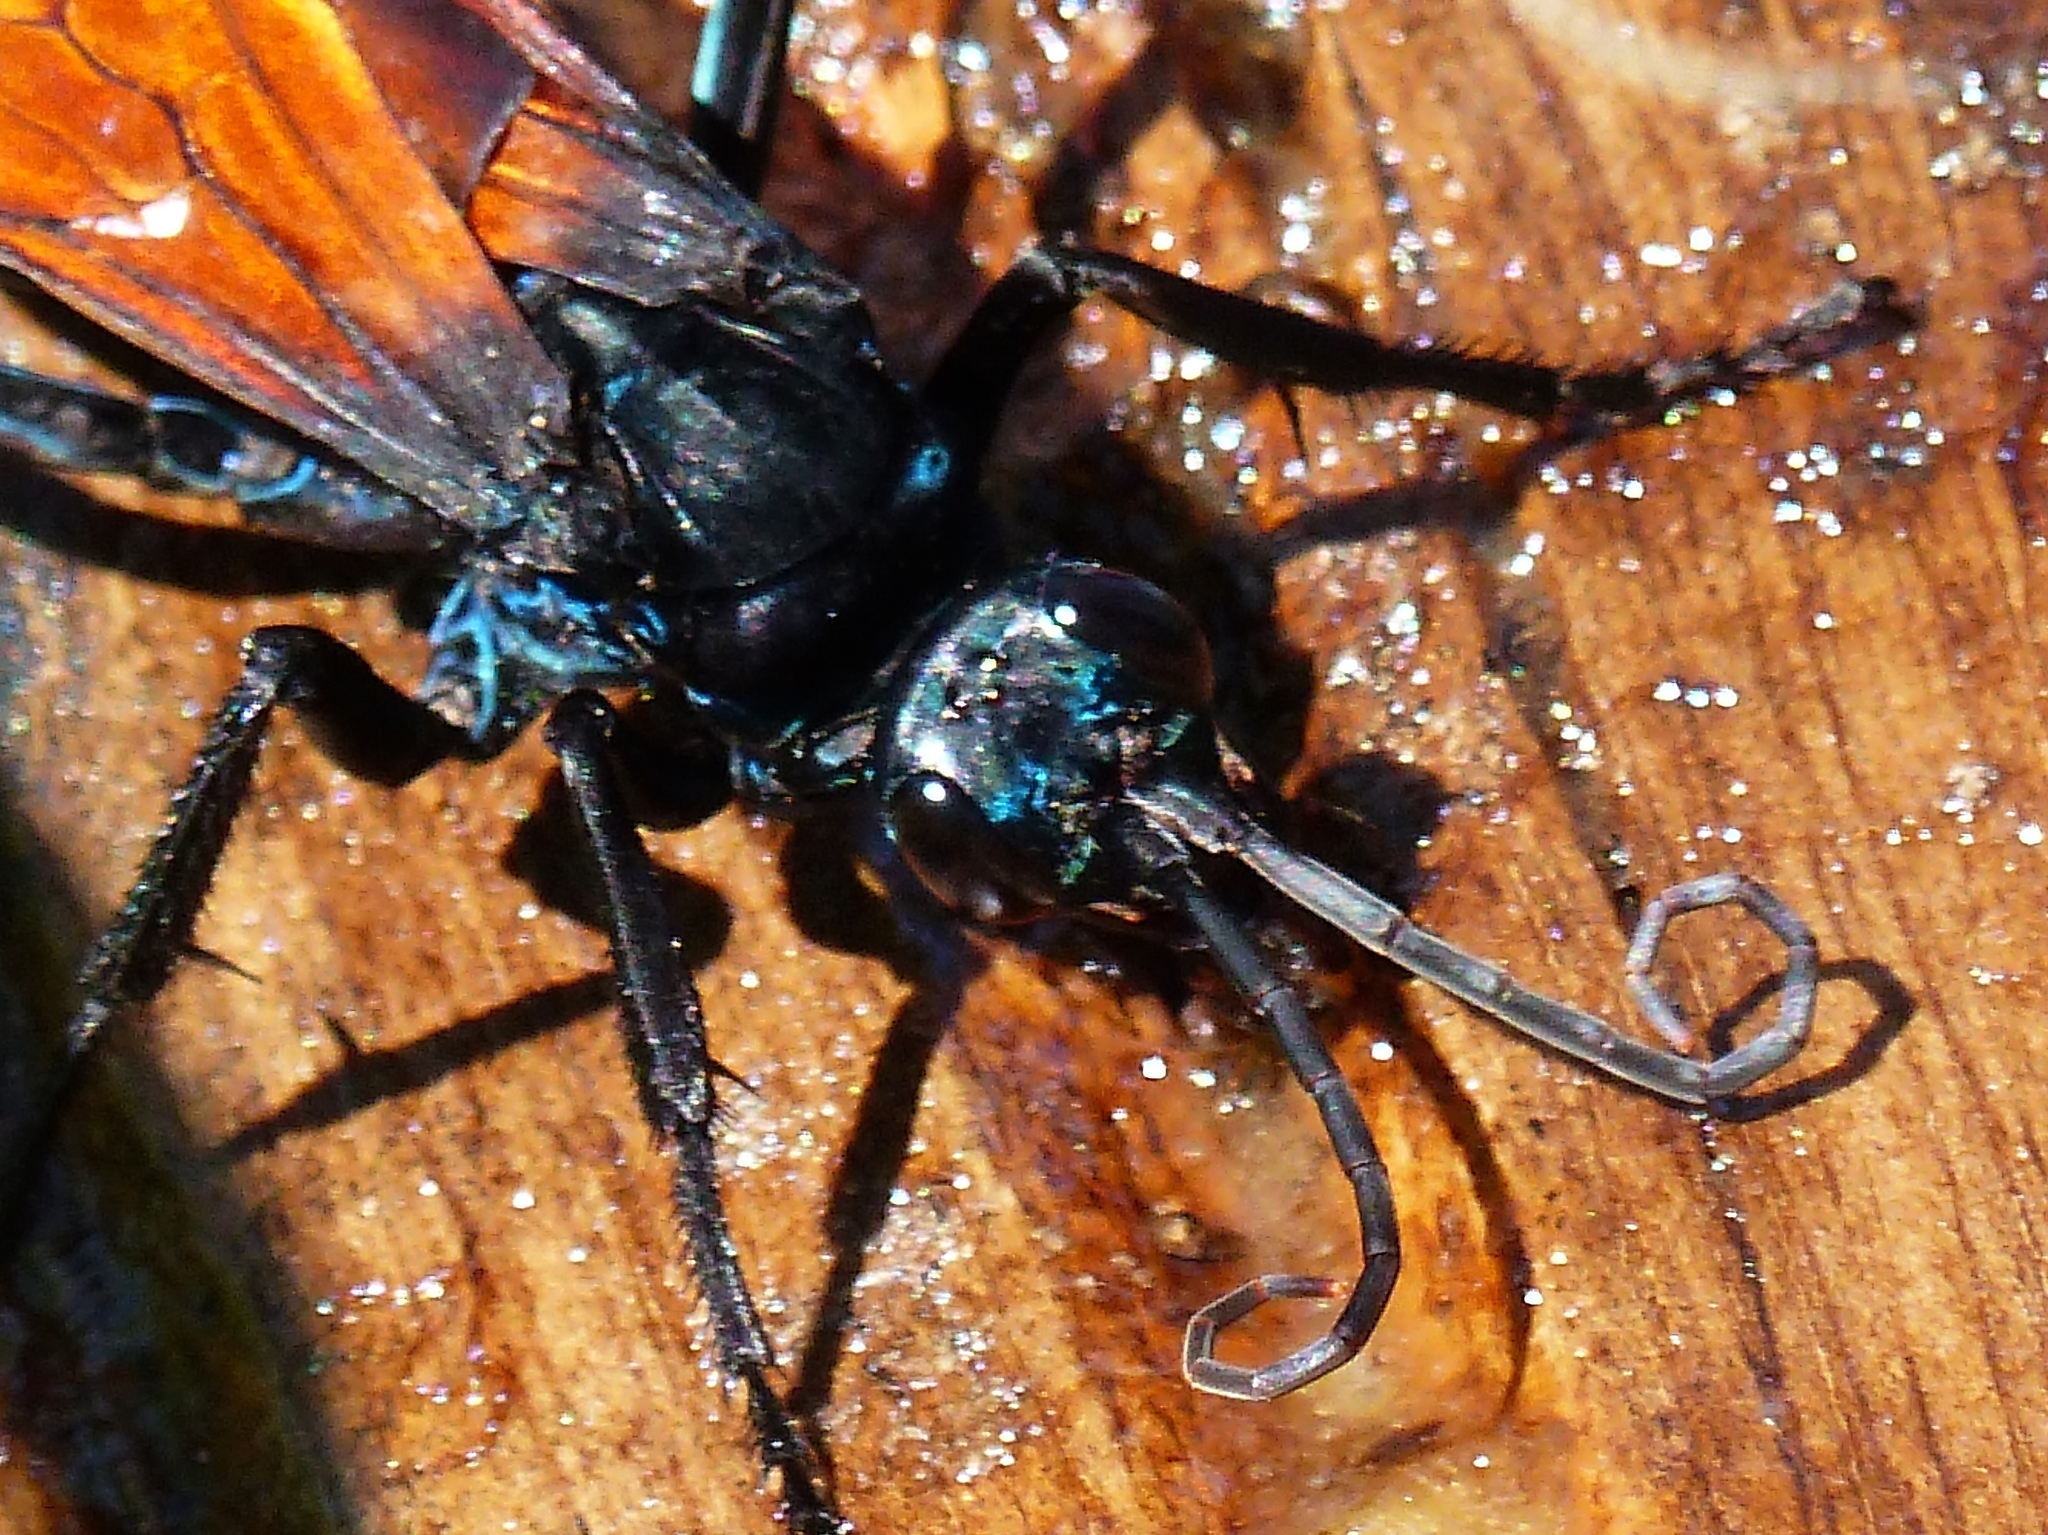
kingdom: Animalia
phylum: Arthropoda
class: Insecta
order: Hymenoptera
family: Pompilidae
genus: Pepsis
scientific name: Pepsis grossa
